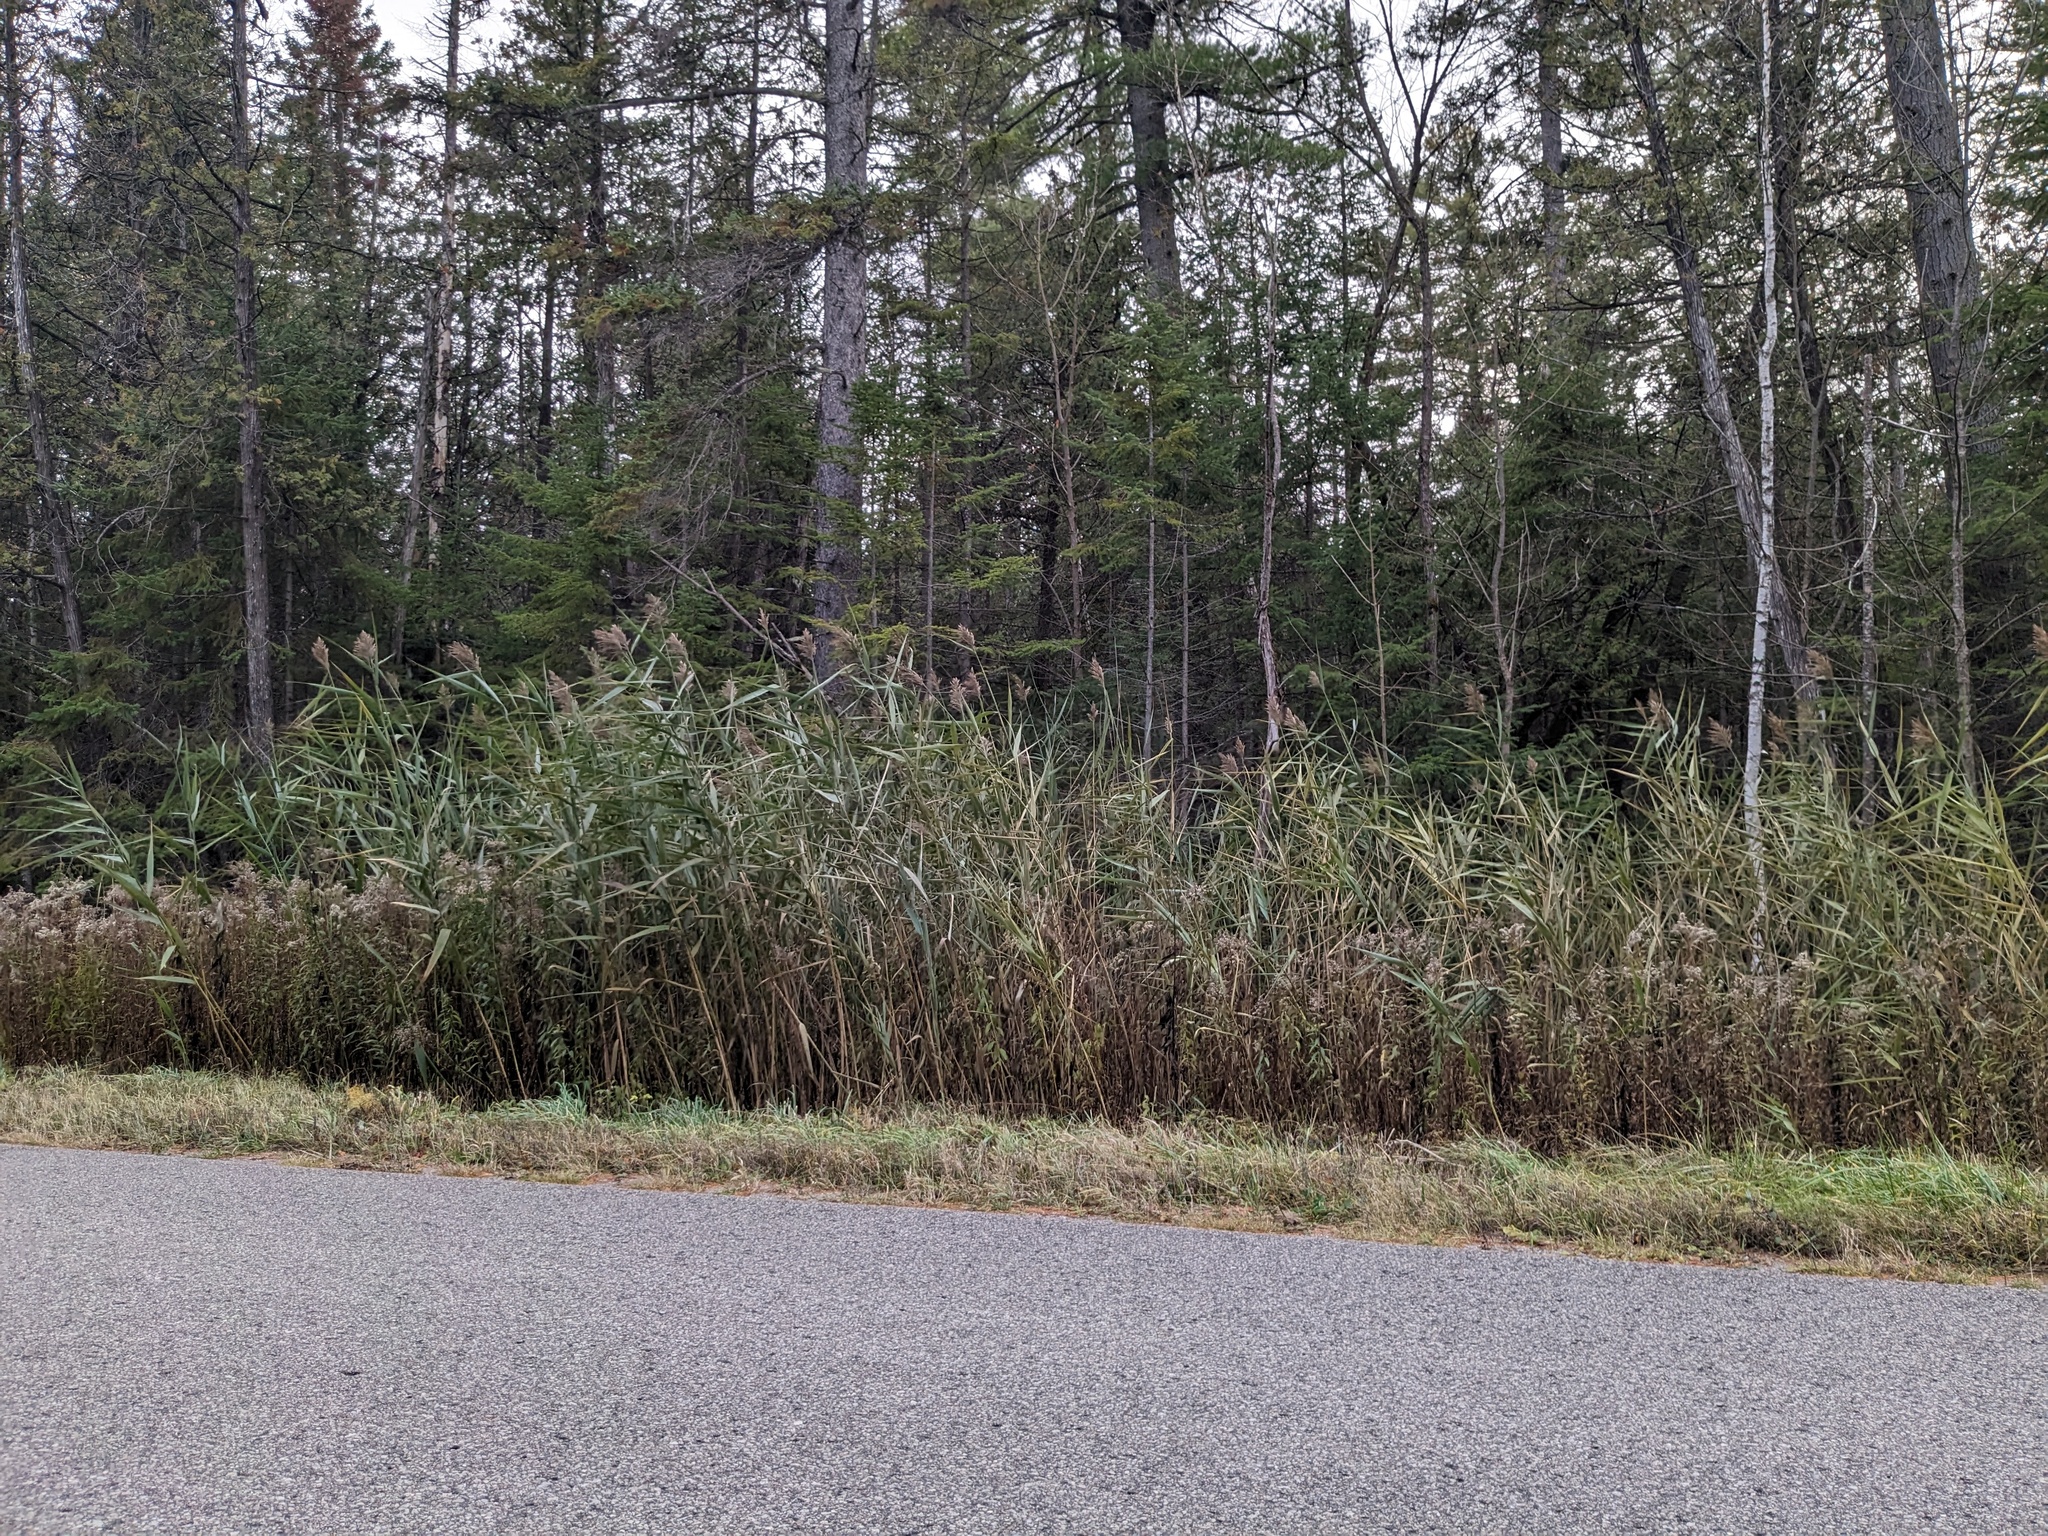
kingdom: Plantae
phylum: Tracheophyta
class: Liliopsida
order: Poales
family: Poaceae
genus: Phragmites
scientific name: Phragmites australis
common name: Common reed
